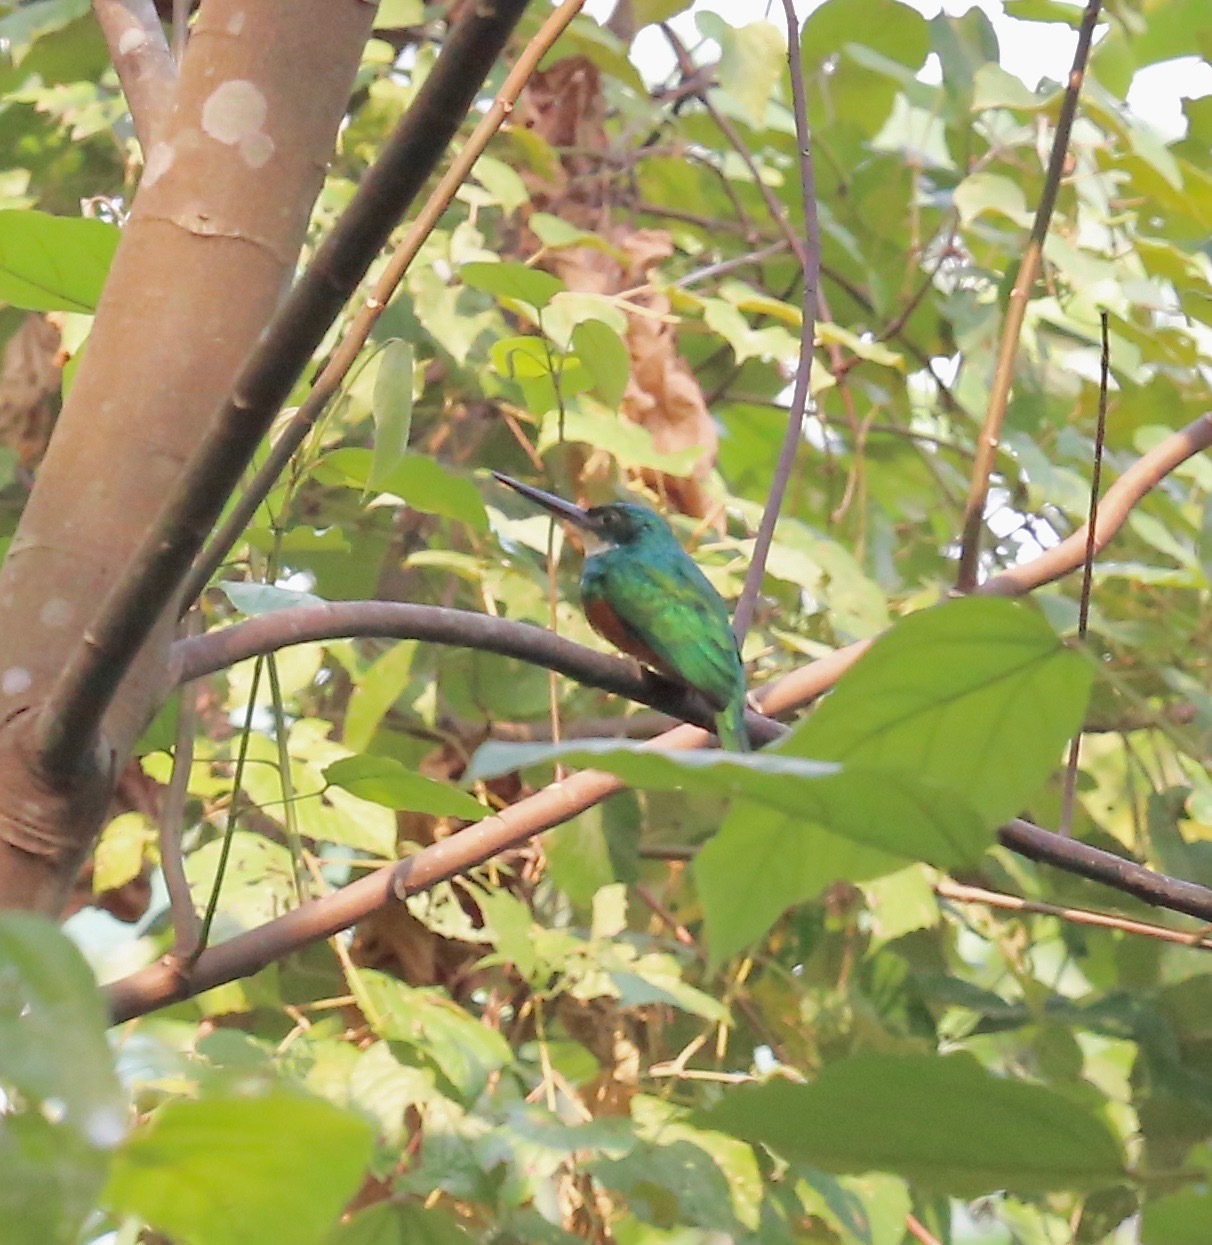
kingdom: Animalia
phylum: Chordata
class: Aves
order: Piciformes
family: Galbulidae
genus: Galbula
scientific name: Galbula ruficauda
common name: Rufous-tailed jacamar
